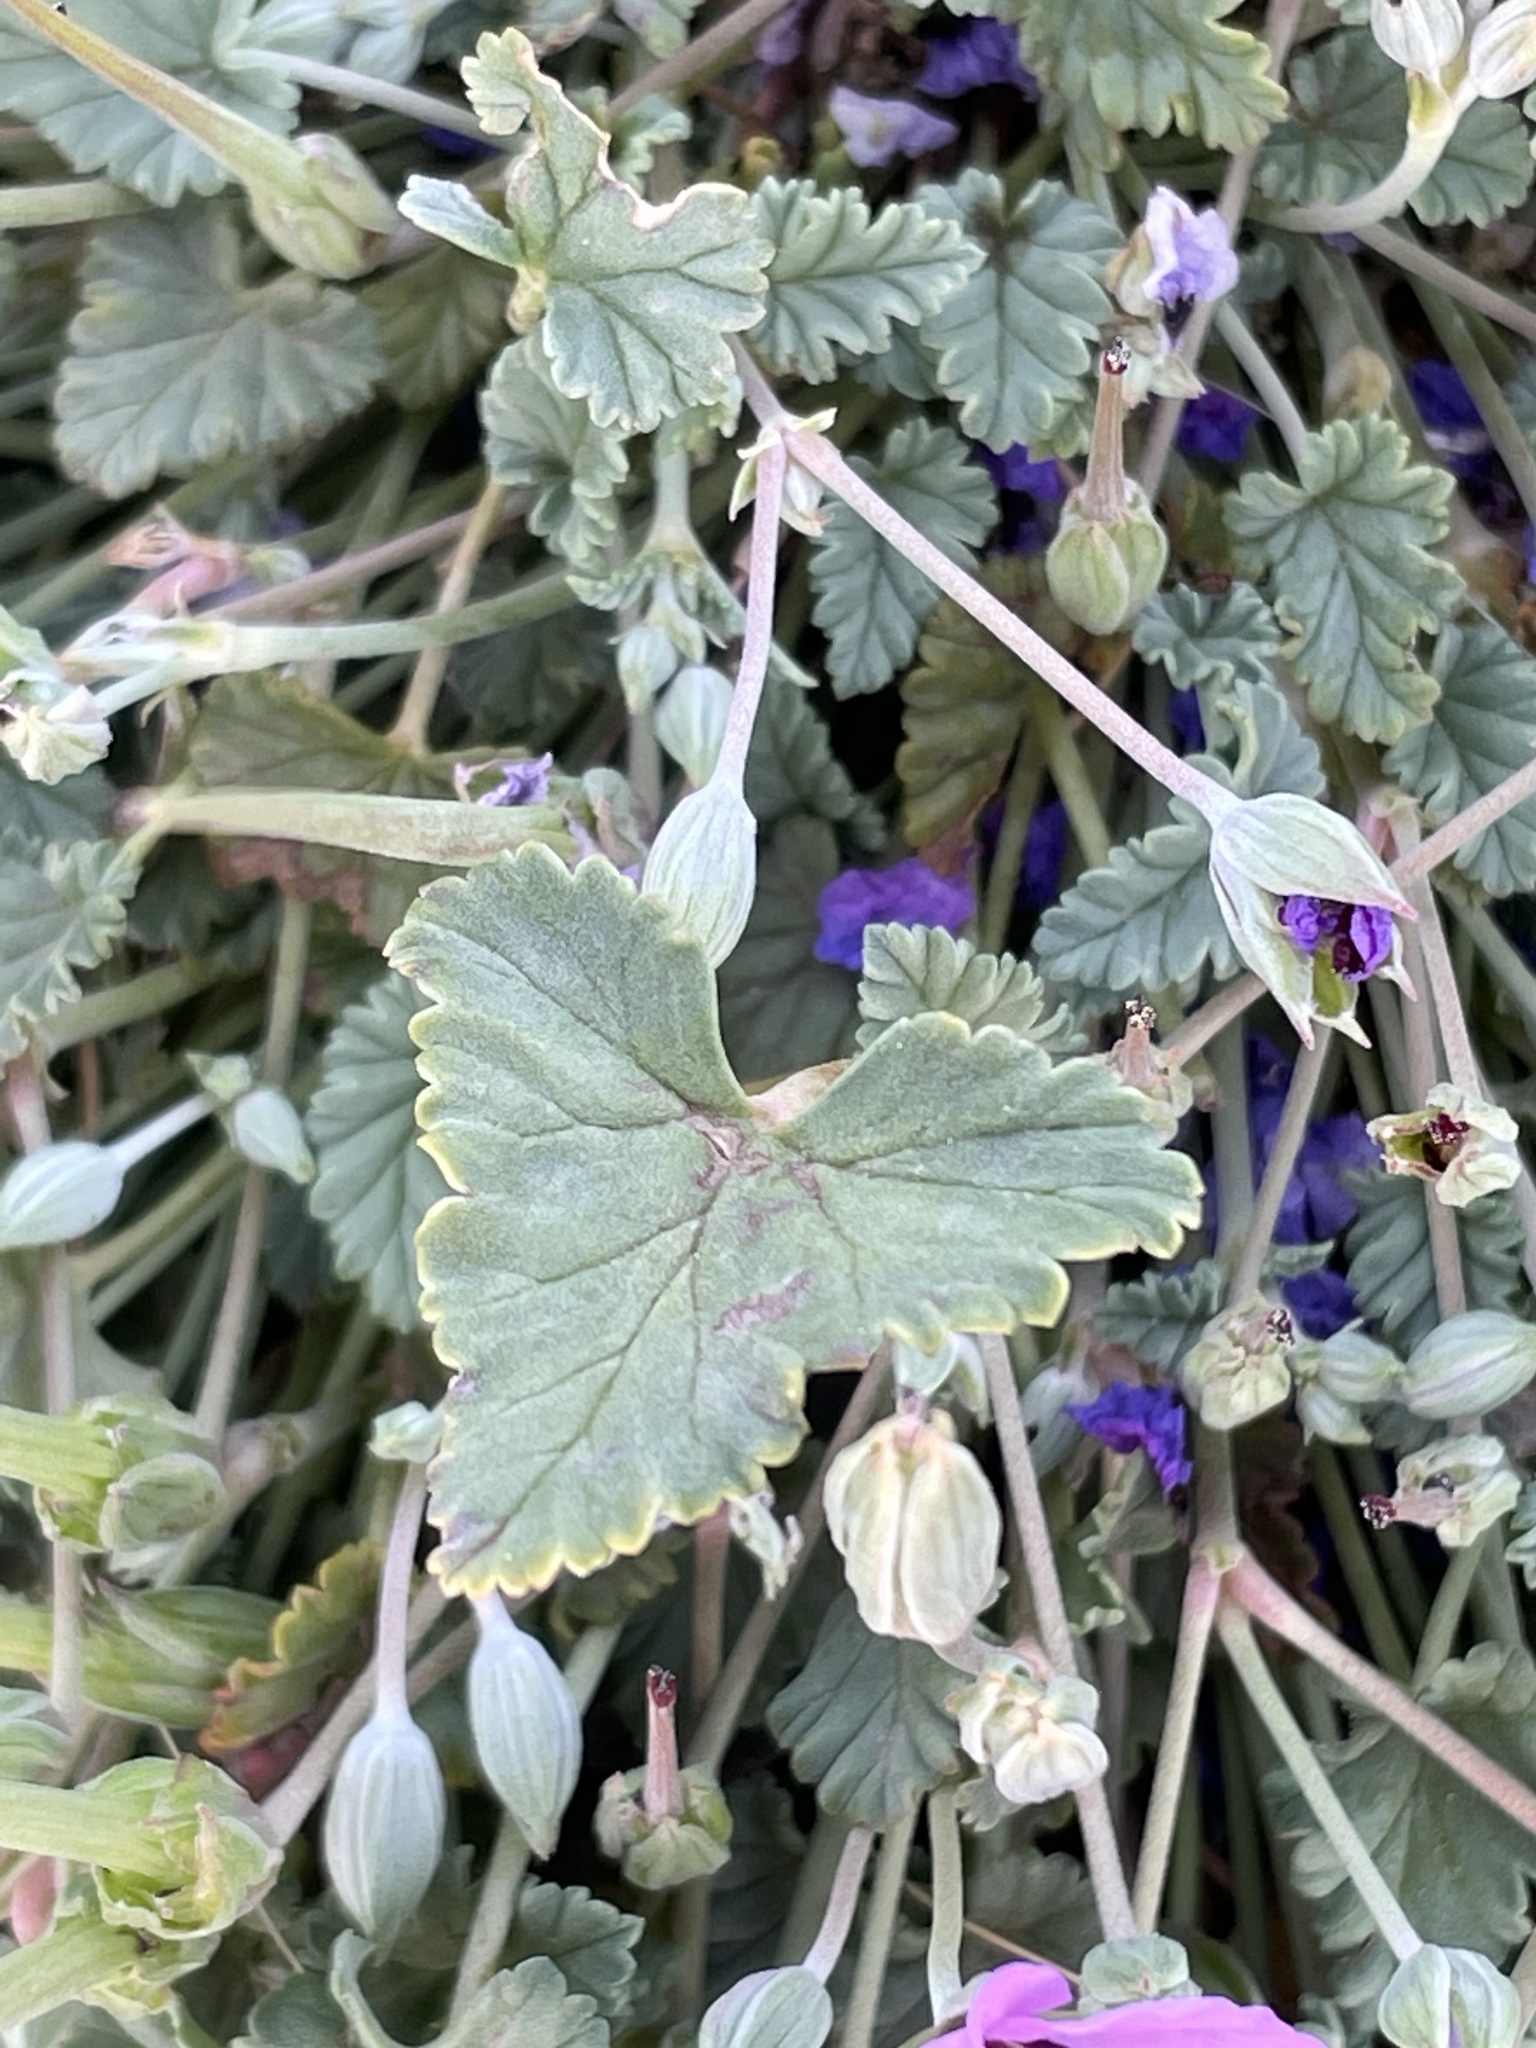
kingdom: Plantae
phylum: Tracheophyta
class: Magnoliopsida
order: Geraniales
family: Geraniaceae
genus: Erodium
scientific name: Erodium guttatum
